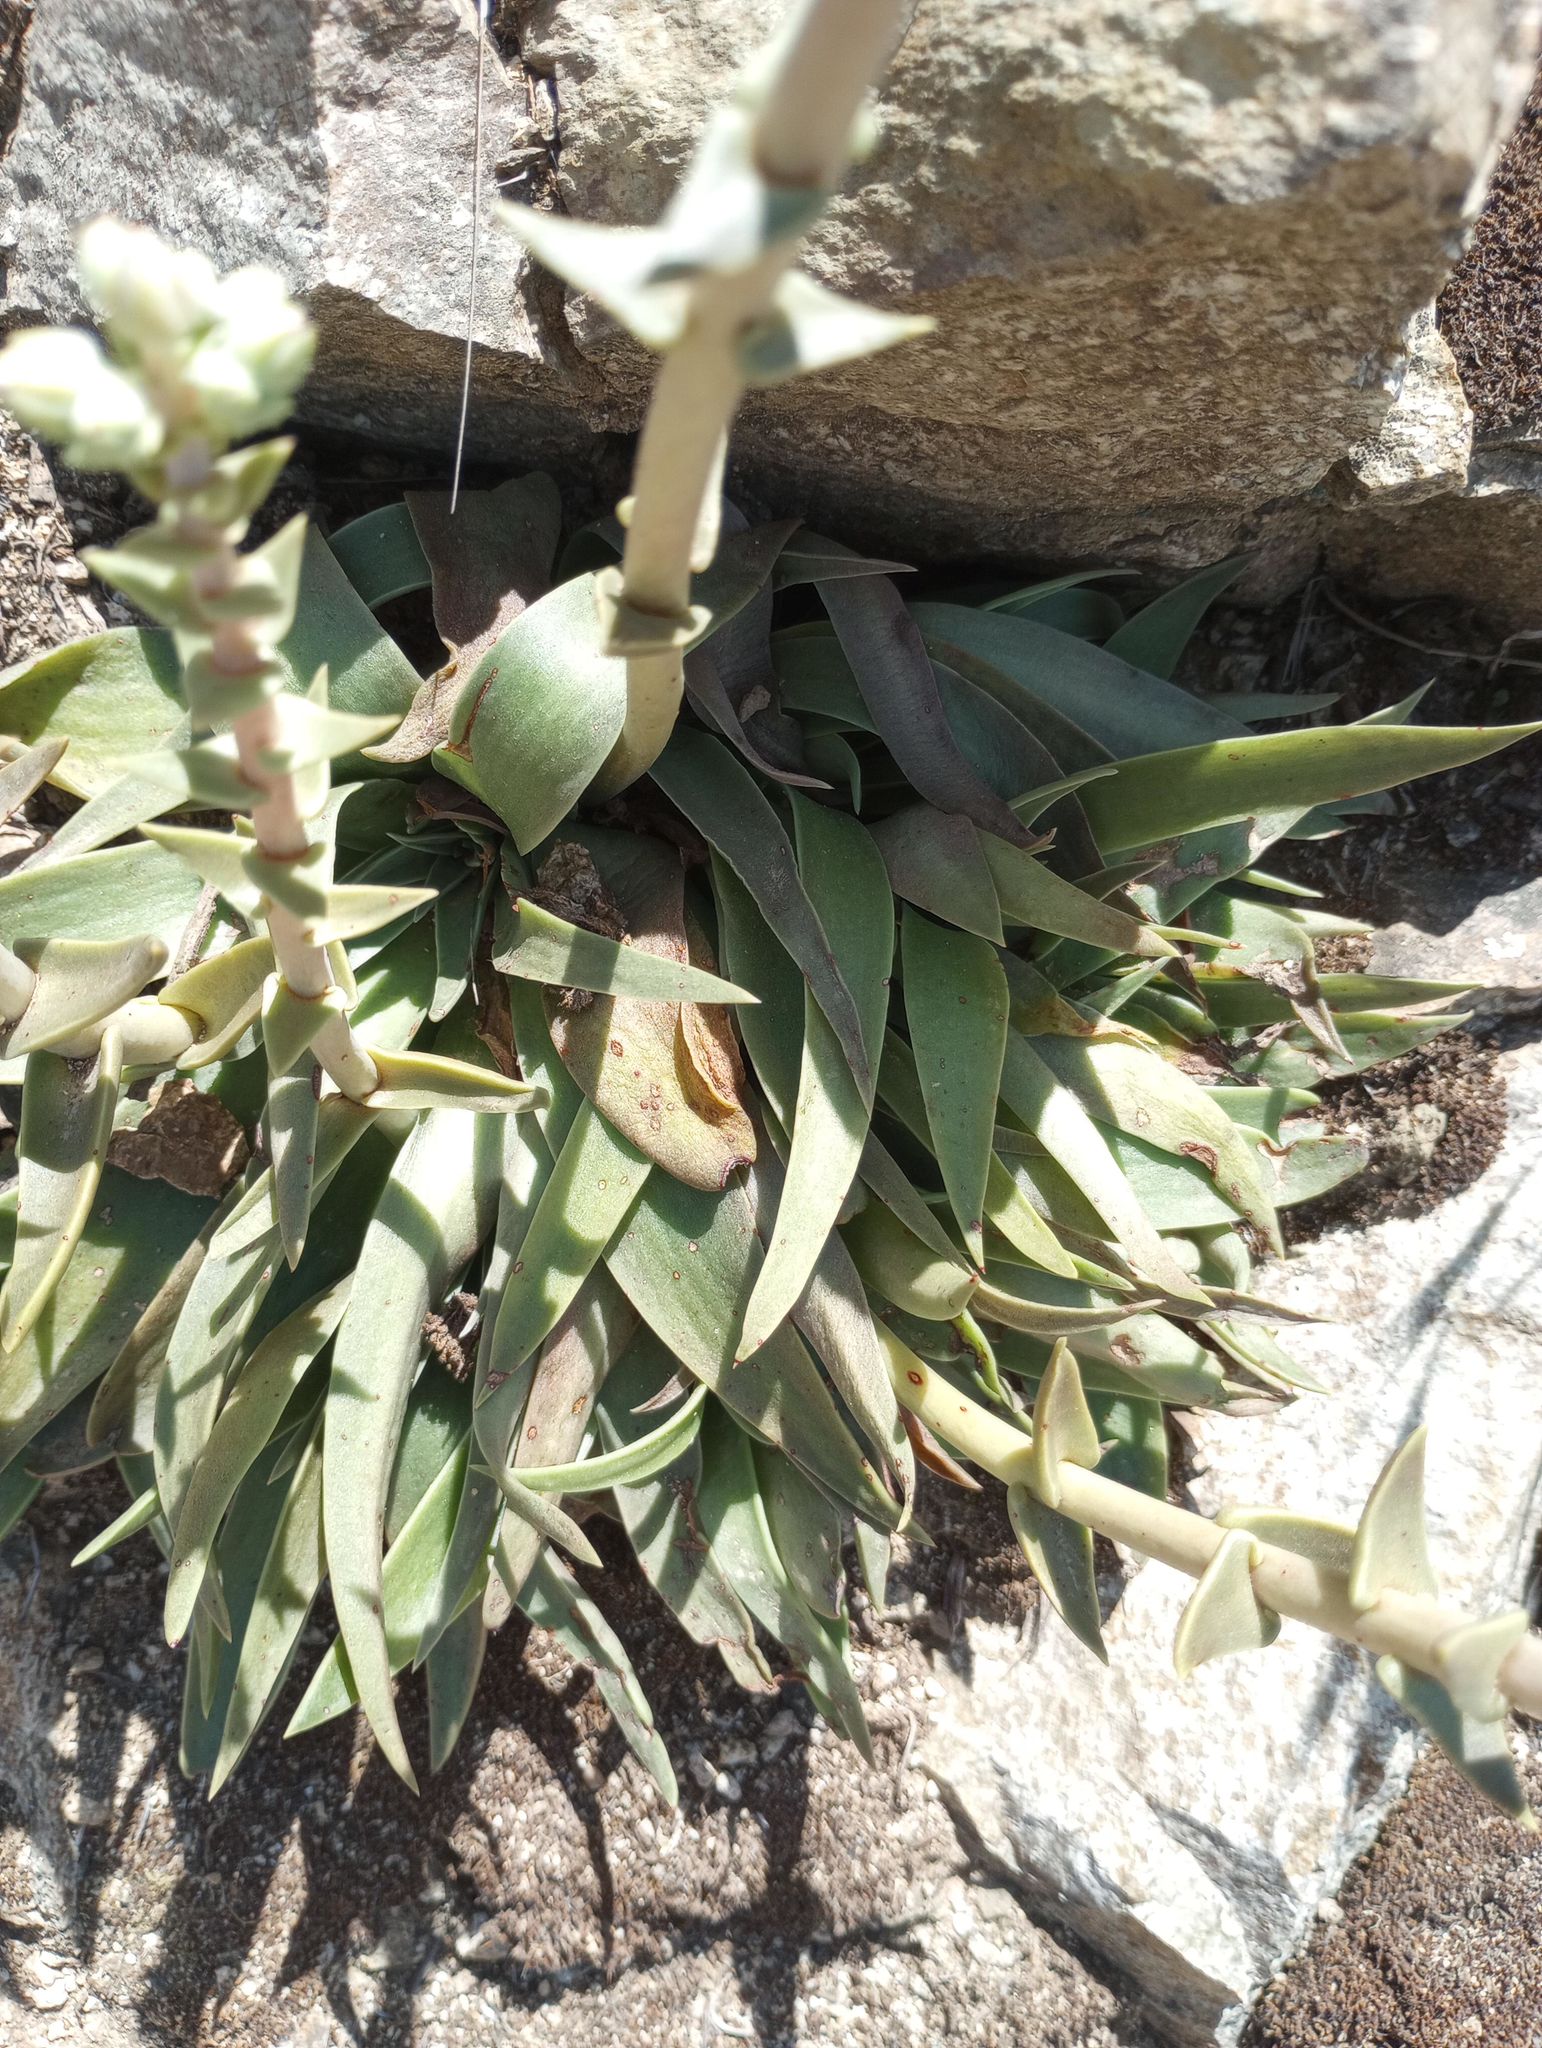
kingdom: Plantae
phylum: Tracheophyta
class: Magnoliopsida
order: Saxifragales
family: Crassulaceae
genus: Dudleya
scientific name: Dudleya lanceolata
